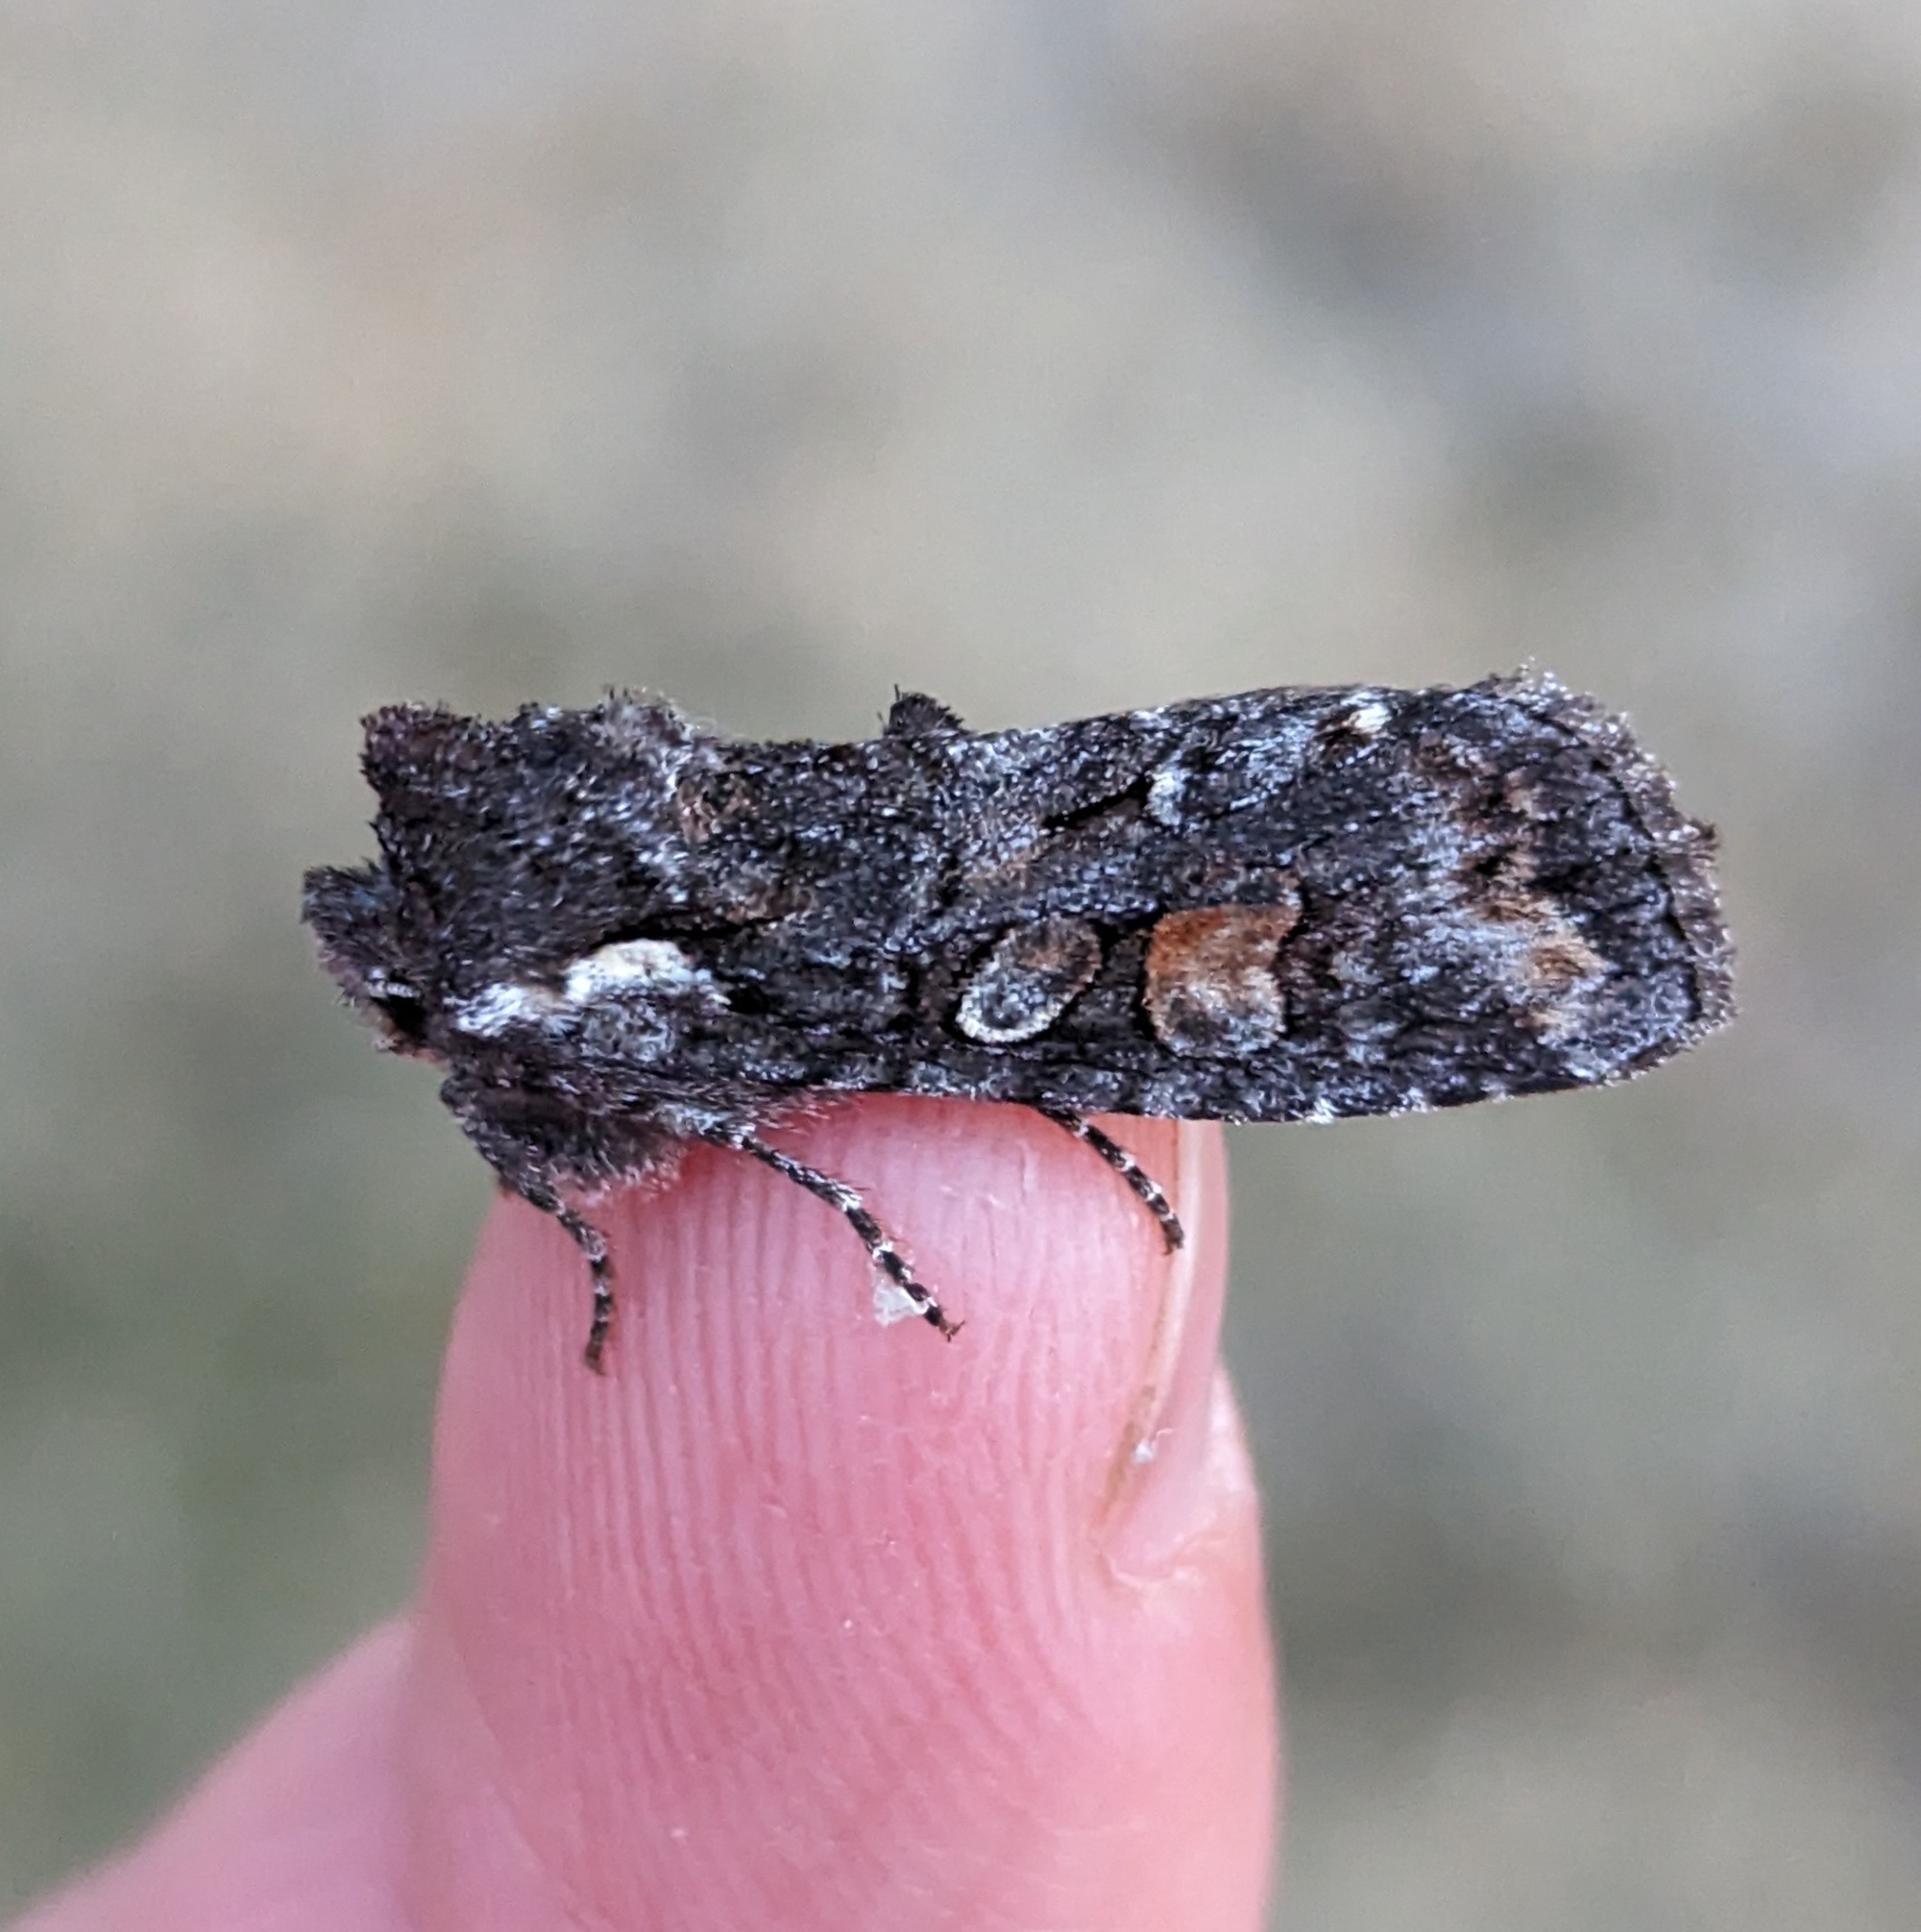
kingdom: Animalia
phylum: Arthropoda
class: Insecta
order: Lepidoptera
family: Noctuidae
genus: Lithophane
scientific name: Lithophane pexata
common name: Plush-naped pinion moth
